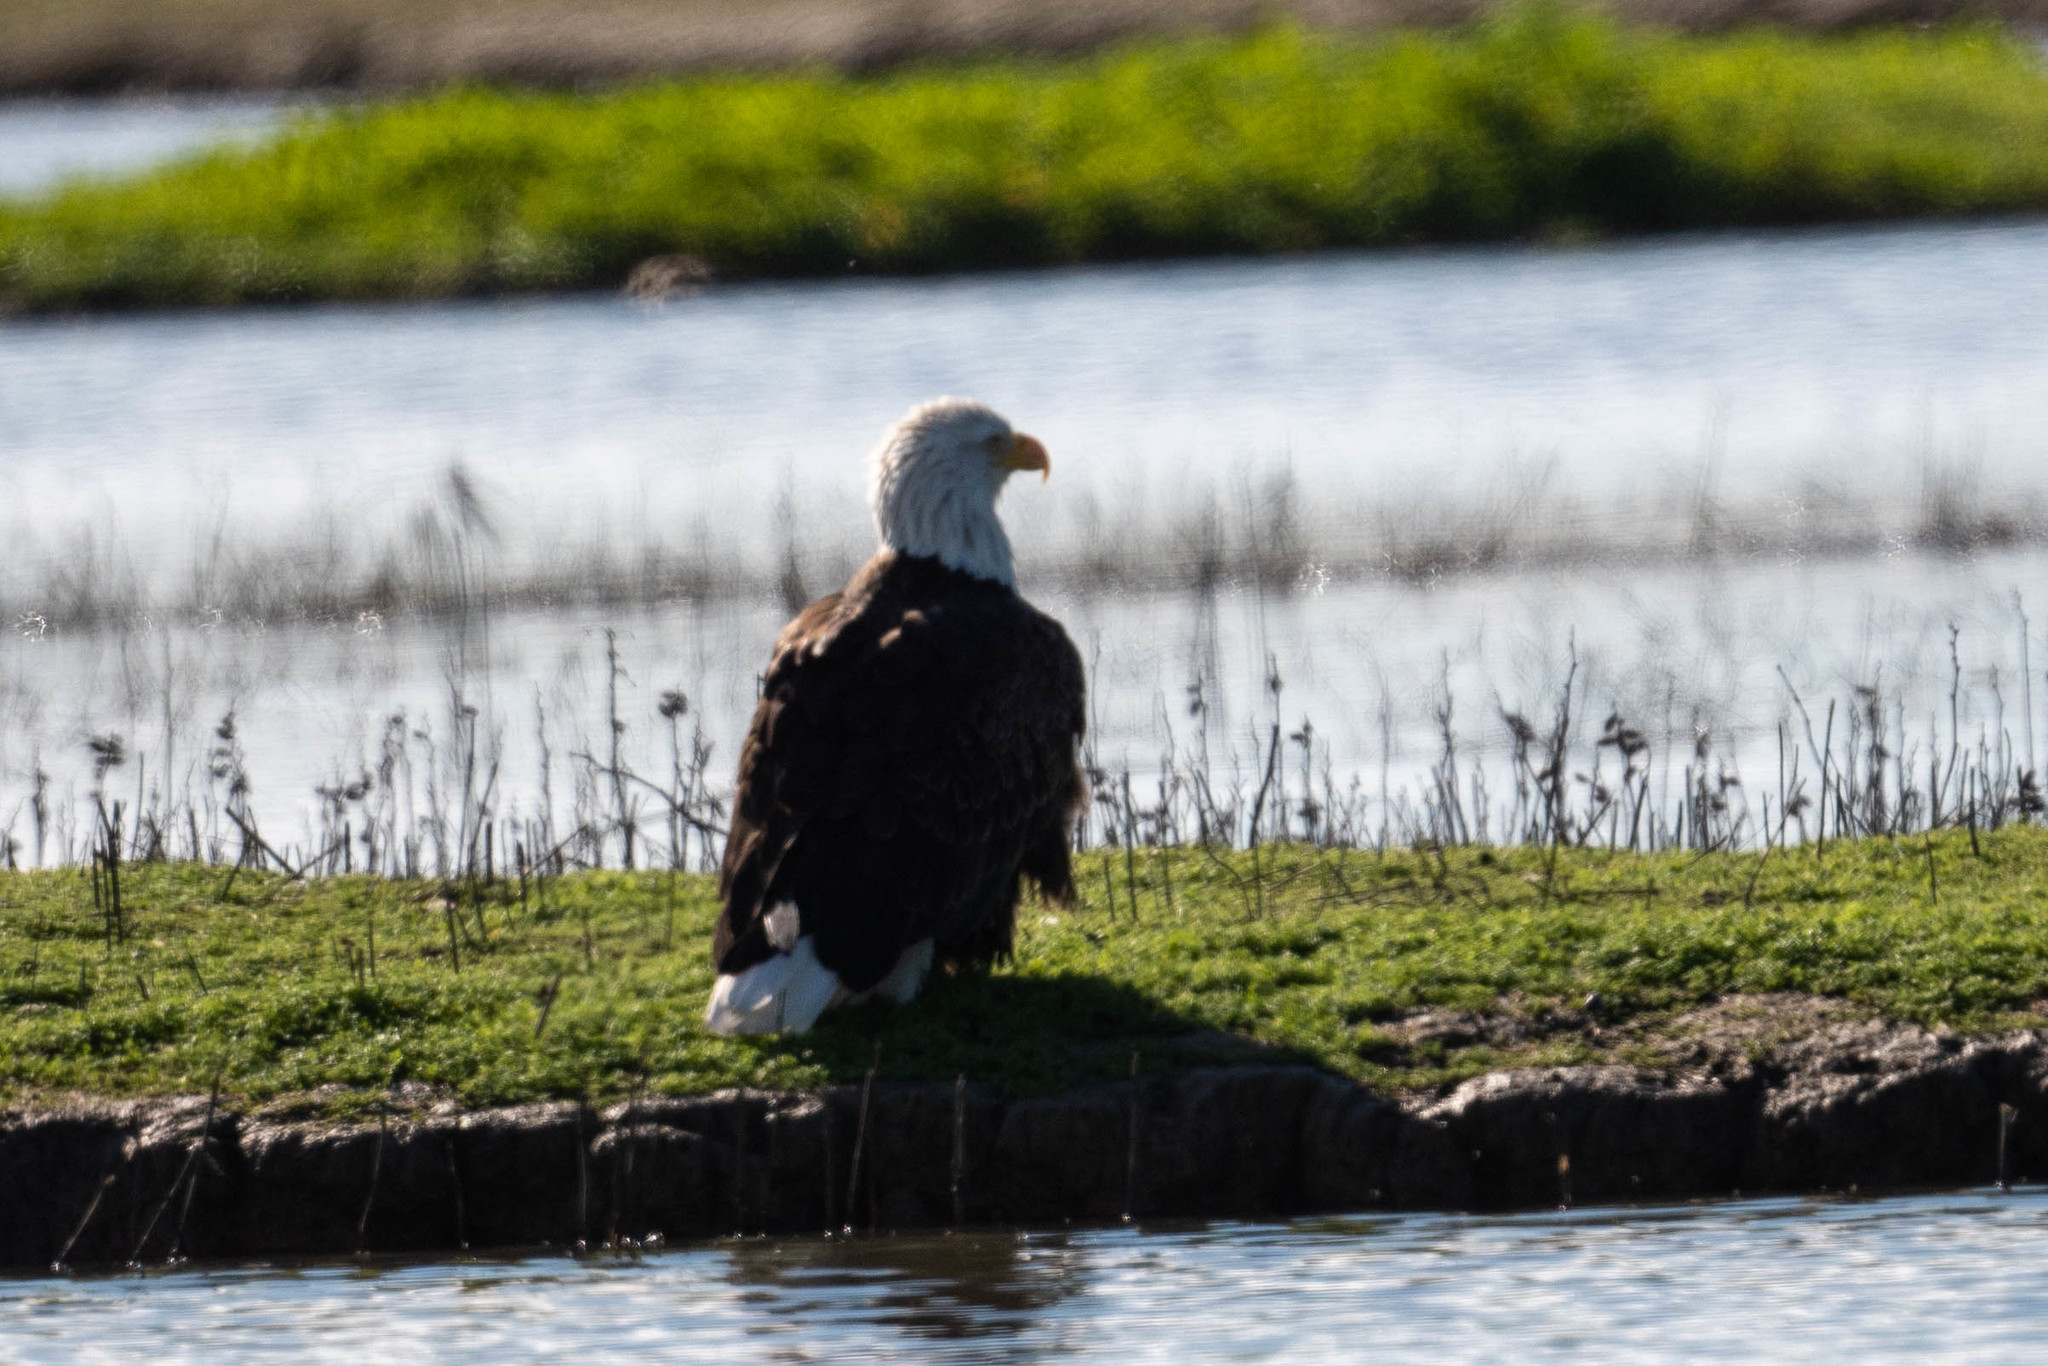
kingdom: Animalia
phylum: Chordata
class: Aves
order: Accipitriformes
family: Accipitridae
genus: Haliaeetus
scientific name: Haliaeetus leucocephalus
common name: Bald eagle
